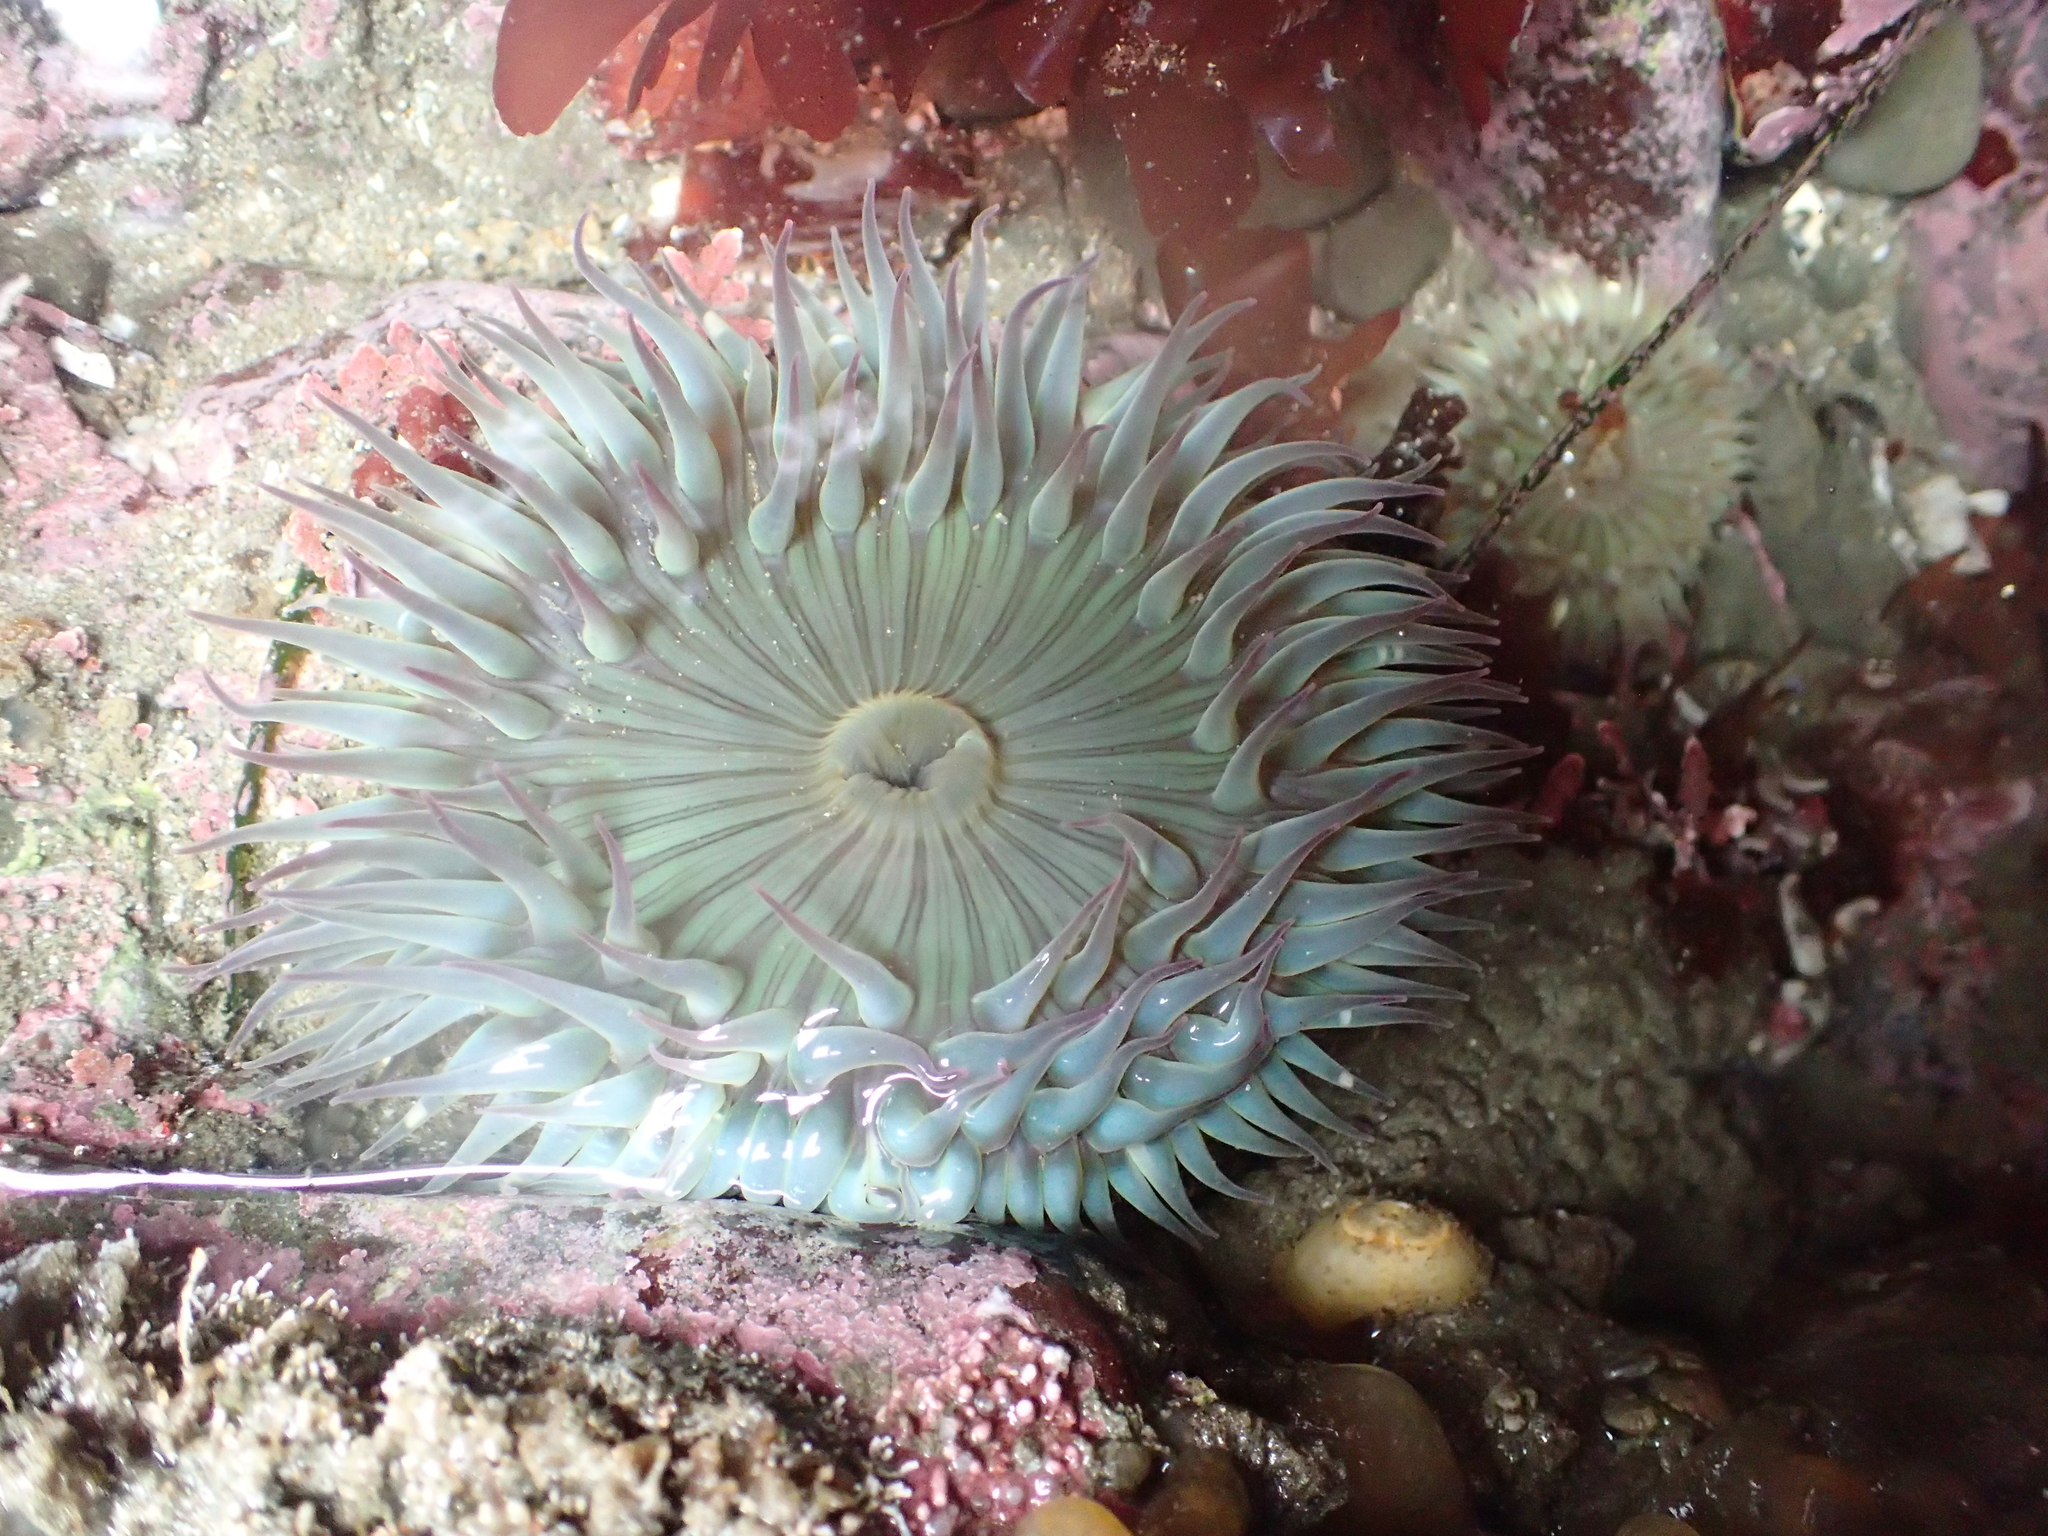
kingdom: Animalia
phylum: Cnidaria
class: Anthozoa
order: Actiniaria
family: Actiniidae
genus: Anthopleura
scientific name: Anthopleura sola
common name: Sun anemone
